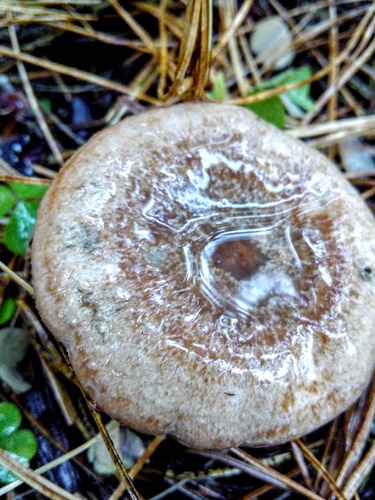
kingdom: Fungi
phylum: Basidiomycota
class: Agaricomycetes
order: Russulales
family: Russulaceae
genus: Lactarius
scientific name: Lactarius deterrimus
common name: False saffron milkcap
